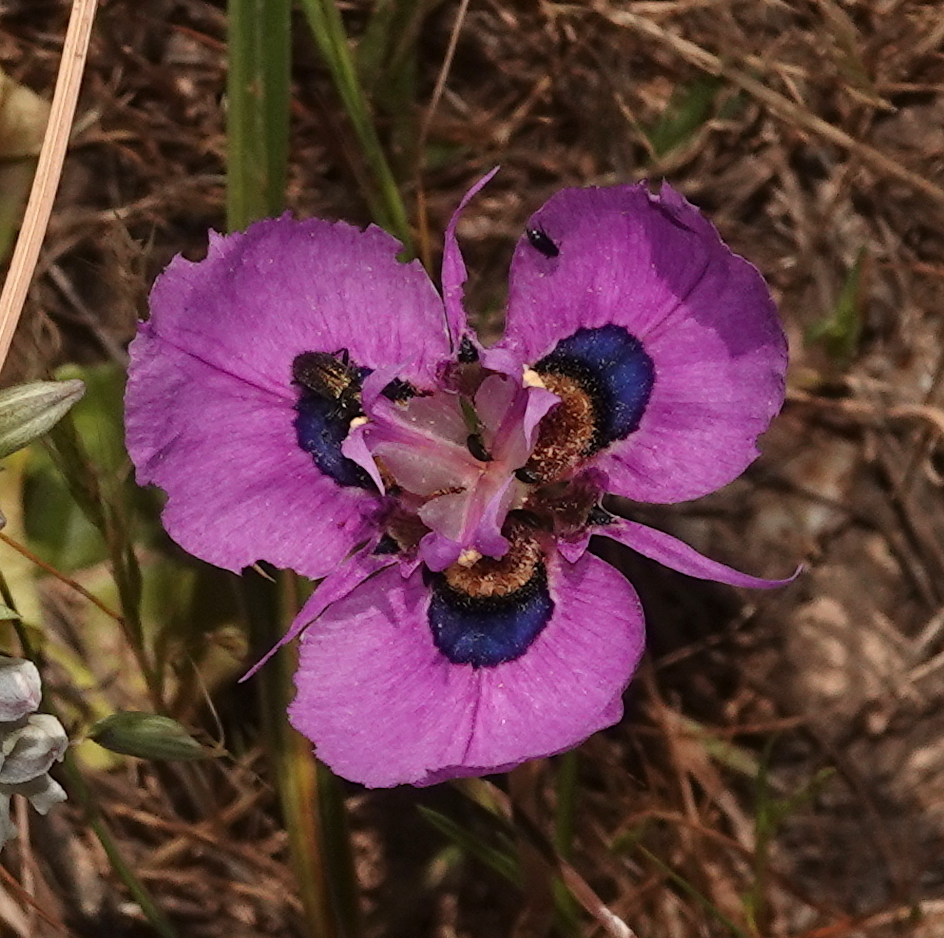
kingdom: Plantae
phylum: Tracheophyta
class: Liliopsida
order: Asparagales
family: Iridaceae
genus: Moraea
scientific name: Moraea villosa
